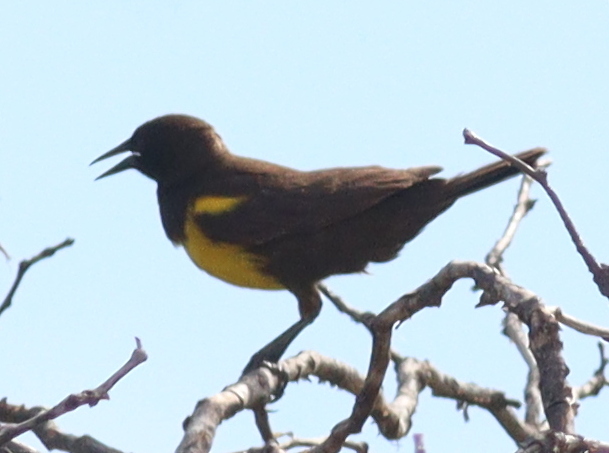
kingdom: Animalia
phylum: Chordata
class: Aves
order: Passeriformes
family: Icteridae
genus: Pseudoleistes
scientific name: Pseudoleistes virescens
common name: Brown-and-yellow marshbird
